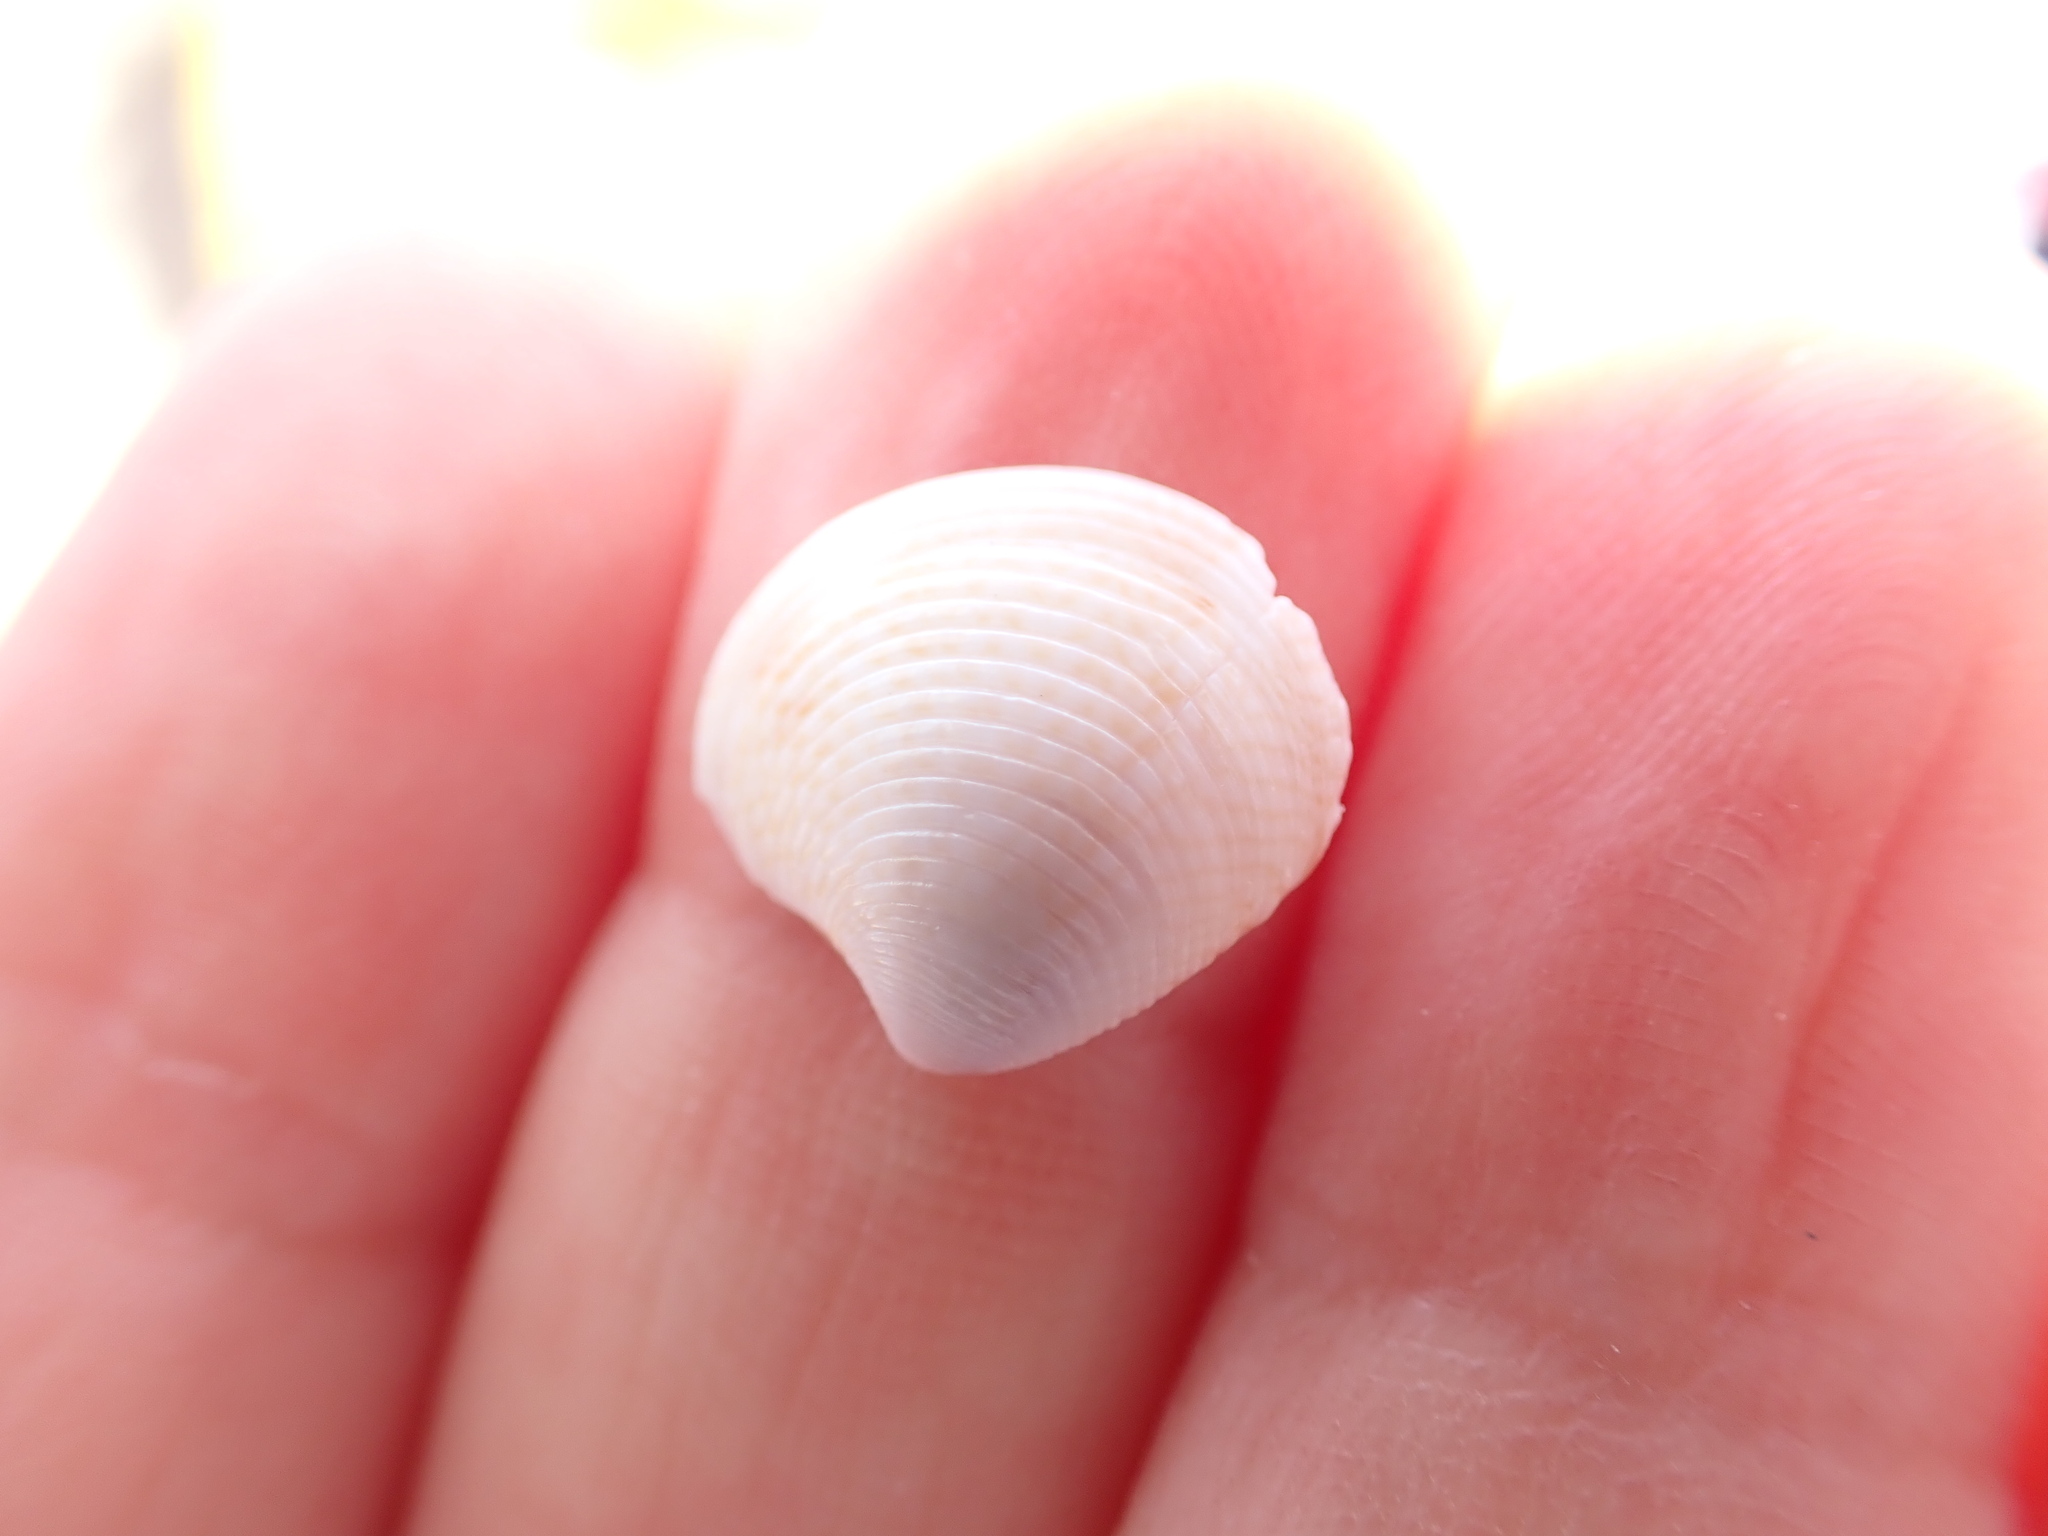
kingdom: Animalia
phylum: Mollusca
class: Bivalvia
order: Venerida
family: Veneridae
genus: Chamelea
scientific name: Chamelea gallina
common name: Chicken venus
